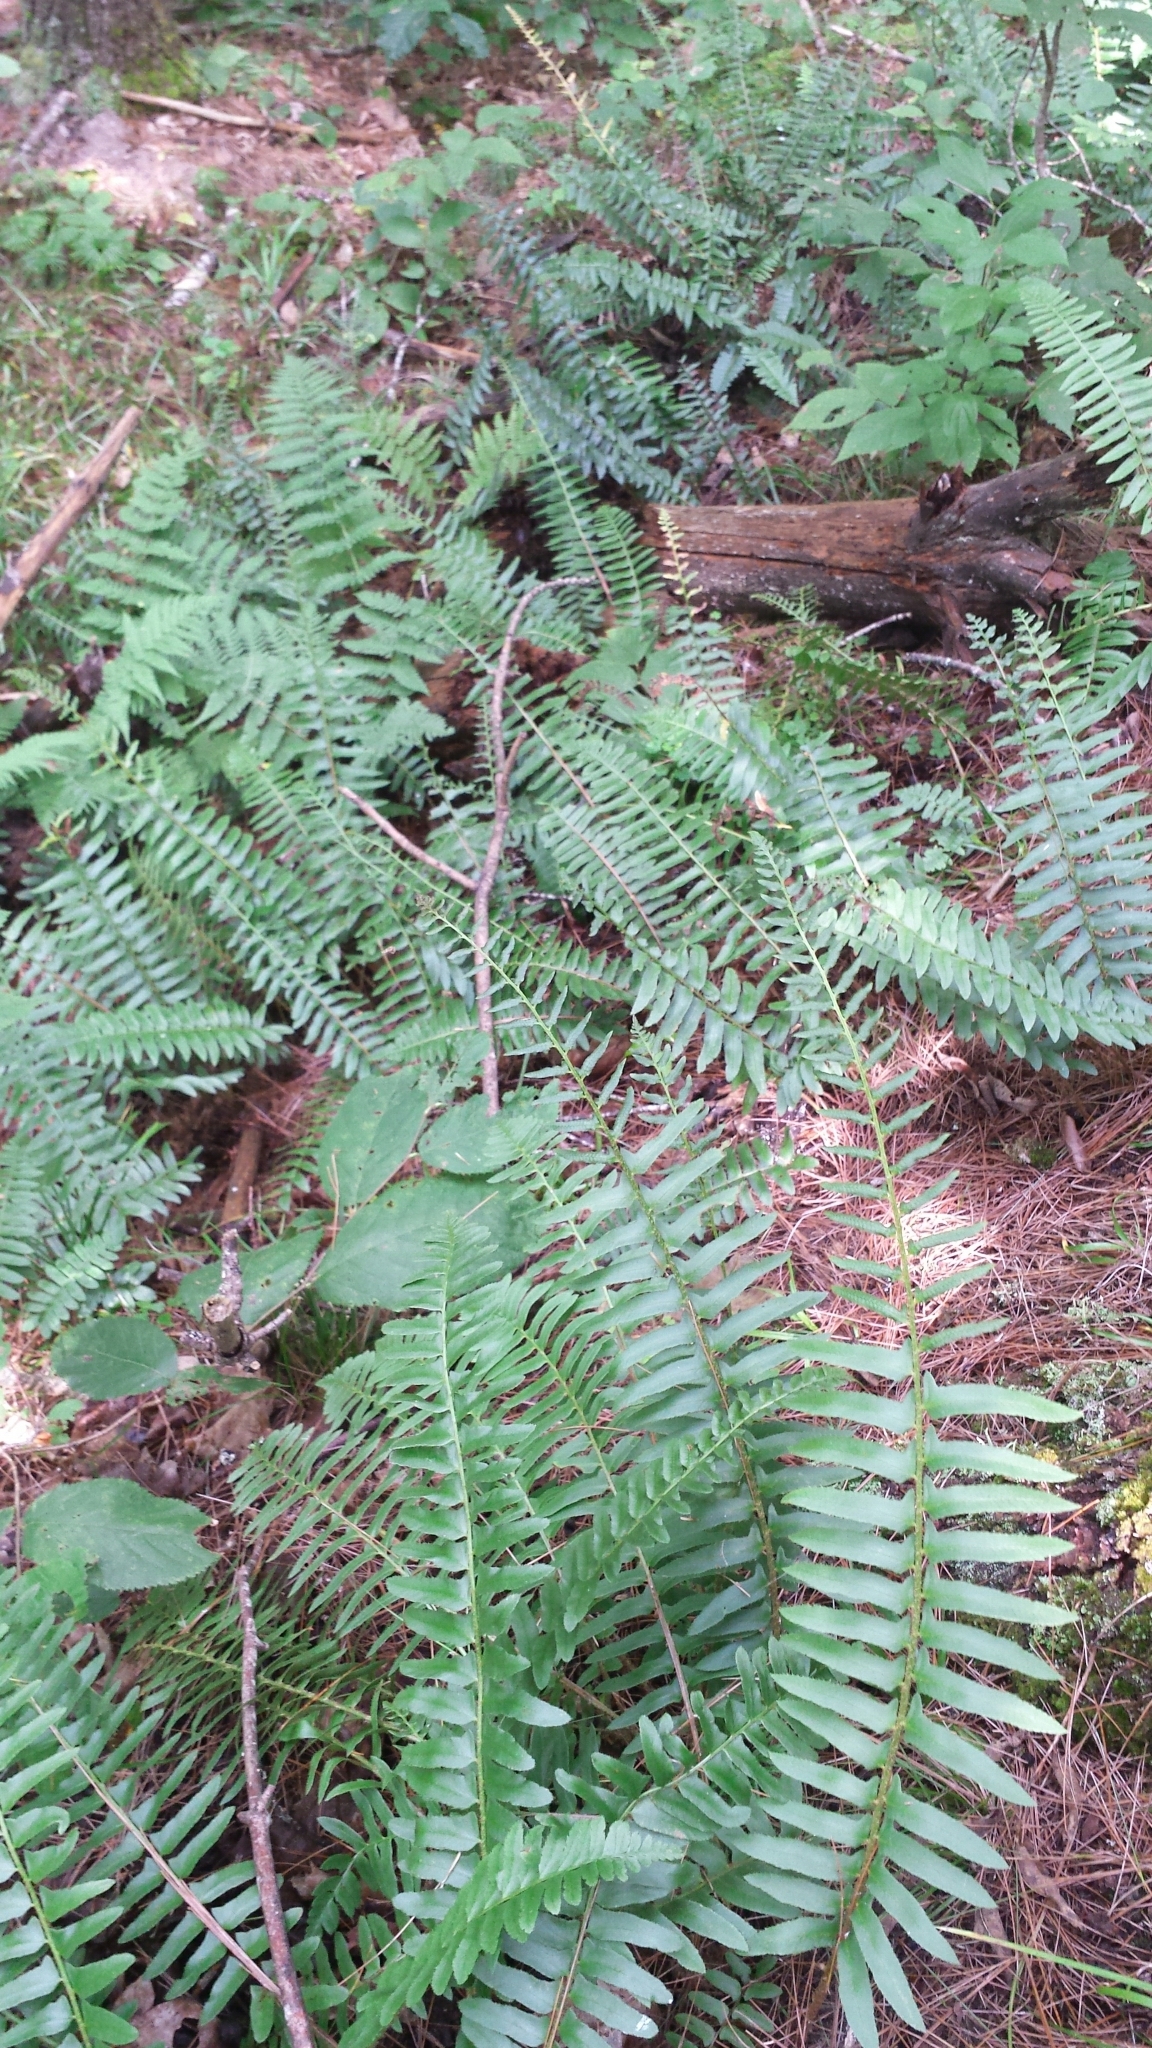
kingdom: Plantae
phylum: Tracheophyta
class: Polypodiopsida
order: Polypodiales
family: Dryopteridaceae
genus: Polystichum
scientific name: Polystichum acrostichoides
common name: Christmas fern
